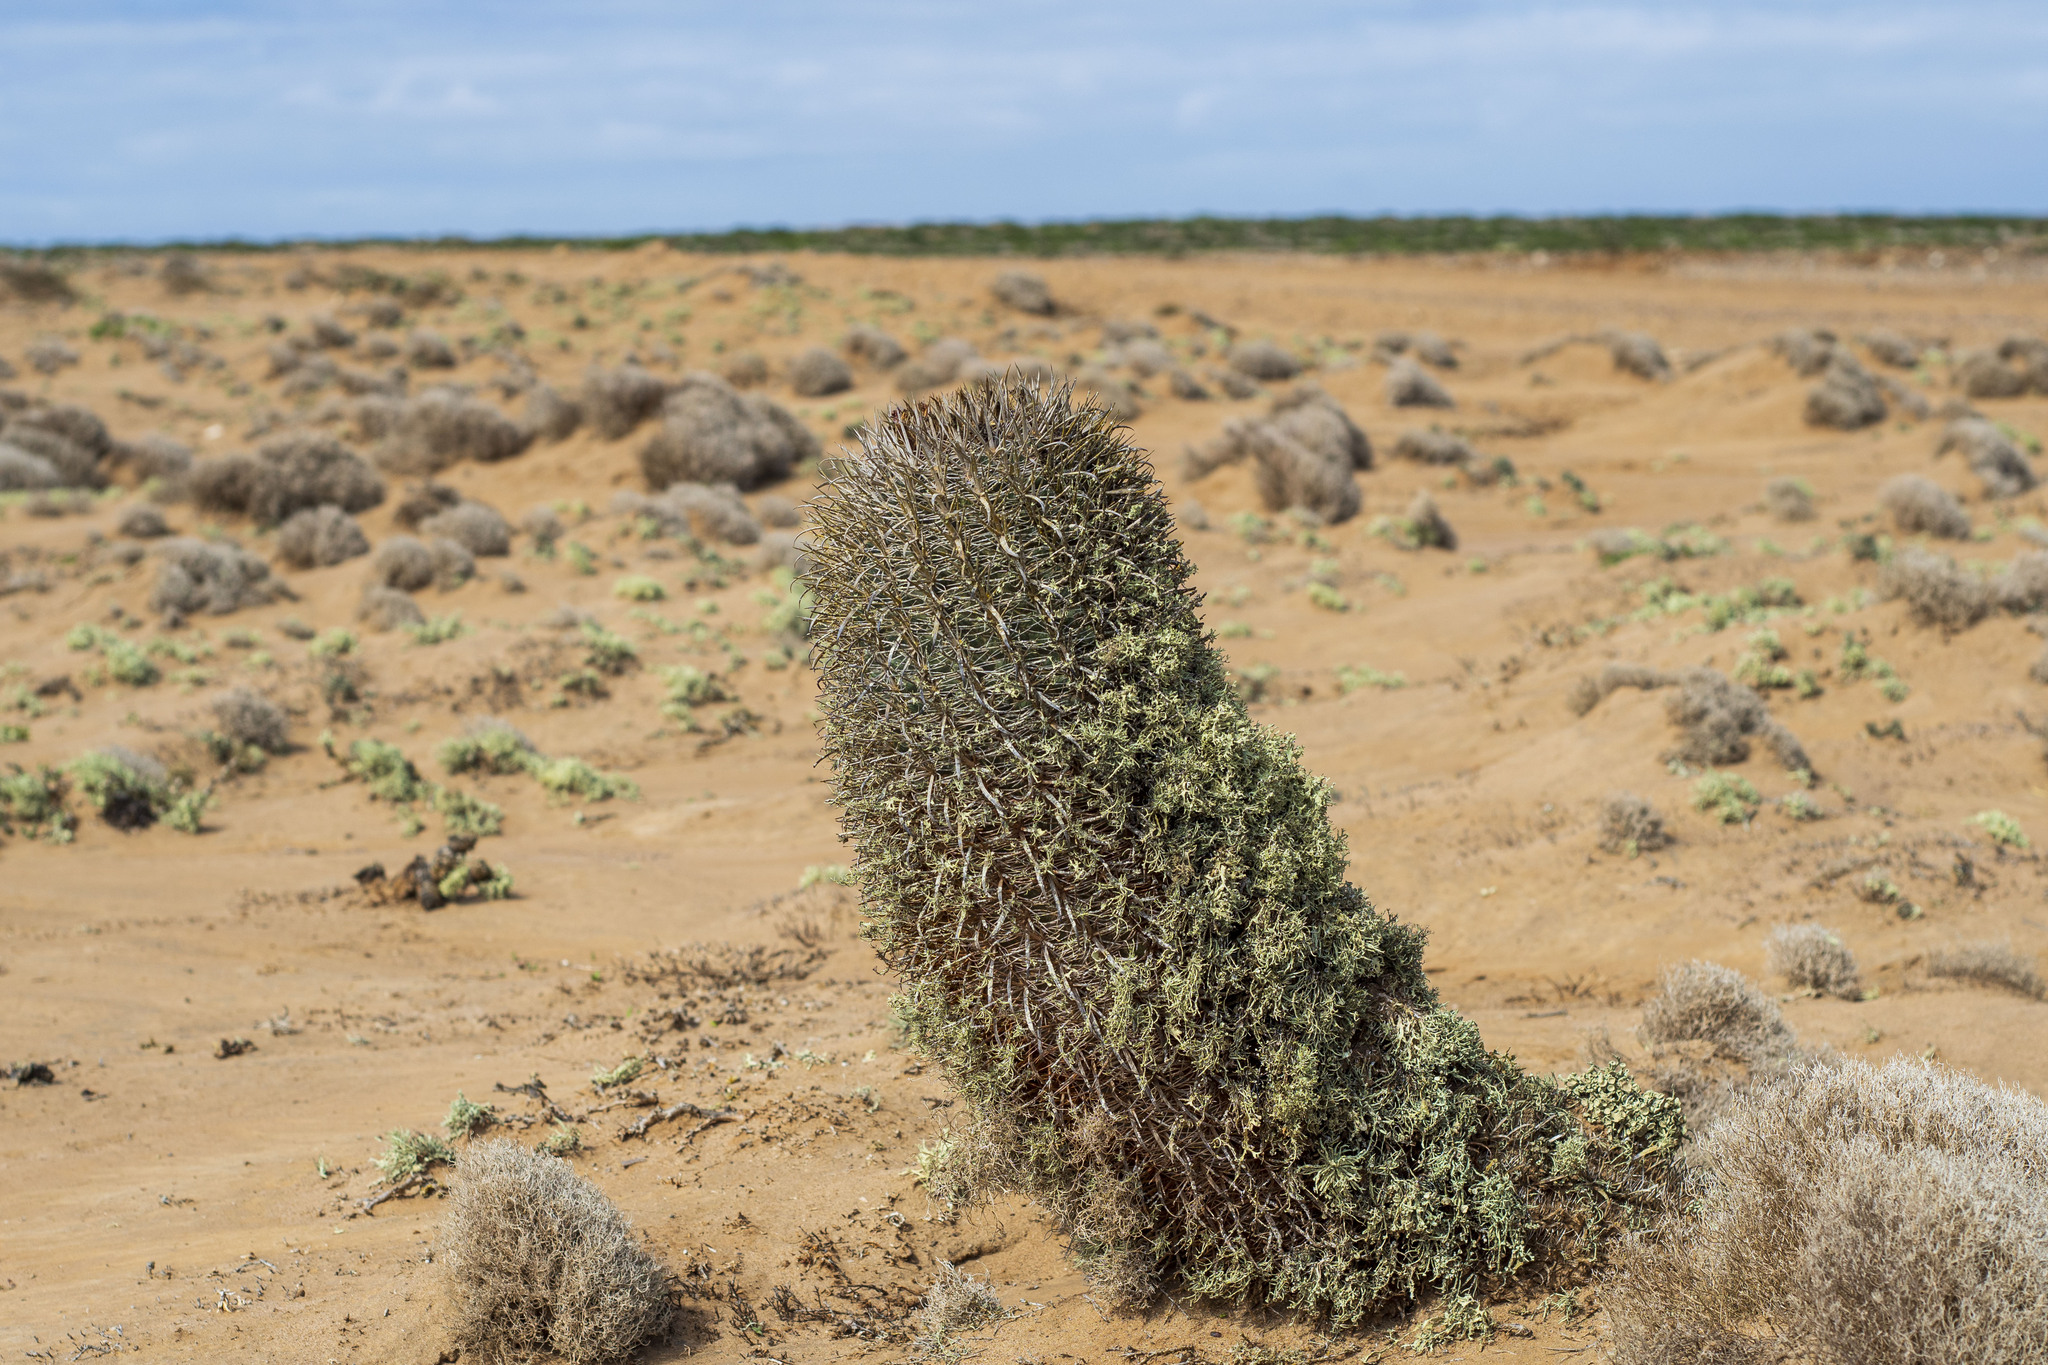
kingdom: Plantae
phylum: Tracheophyta
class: Magnoliopsida
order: Caryophyllales
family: Cactaceae
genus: Ferocactus
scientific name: Ferocactus fordii
